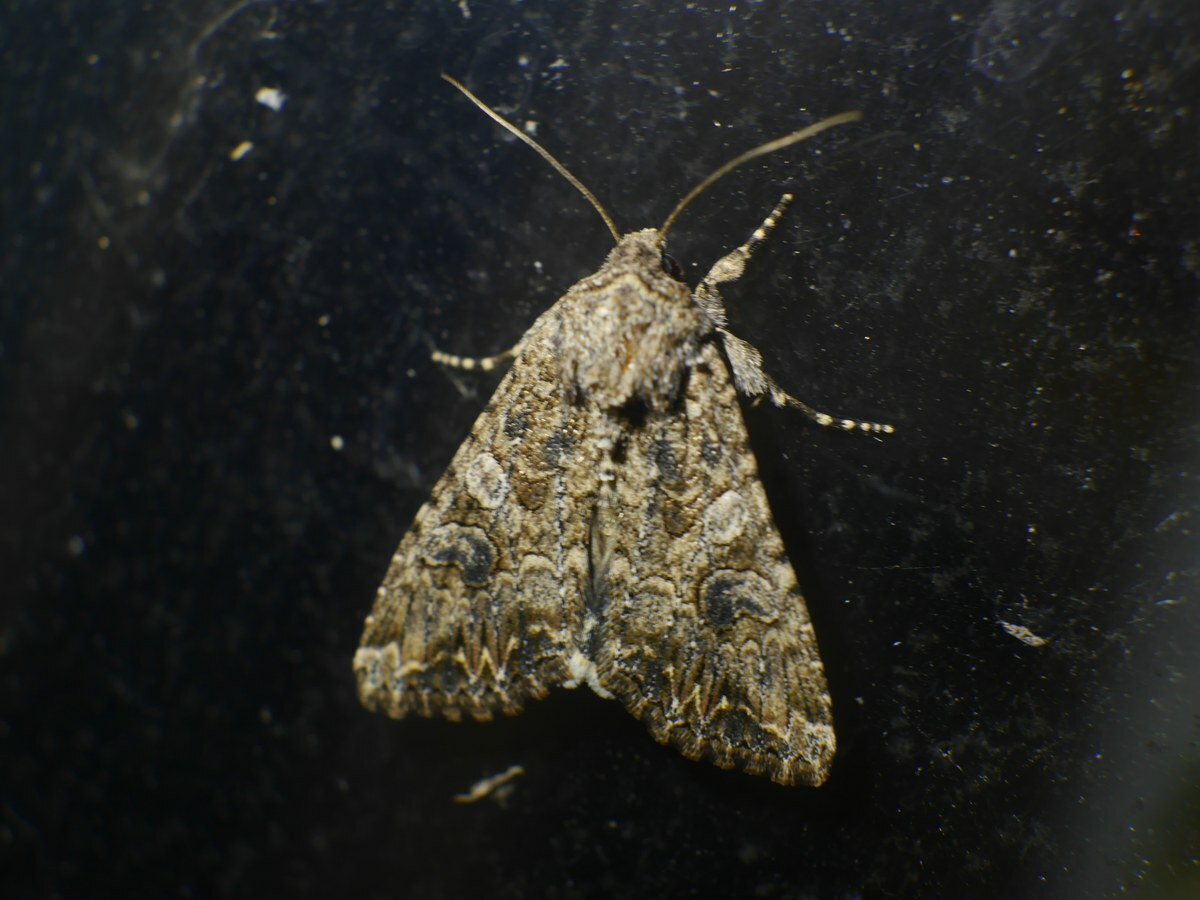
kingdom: Animalia
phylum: Arthropoda
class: Insecta
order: Lepidoptera
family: Noctuidae
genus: Anarta
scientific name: Anarta trifolii
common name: Clover cutworm moth
